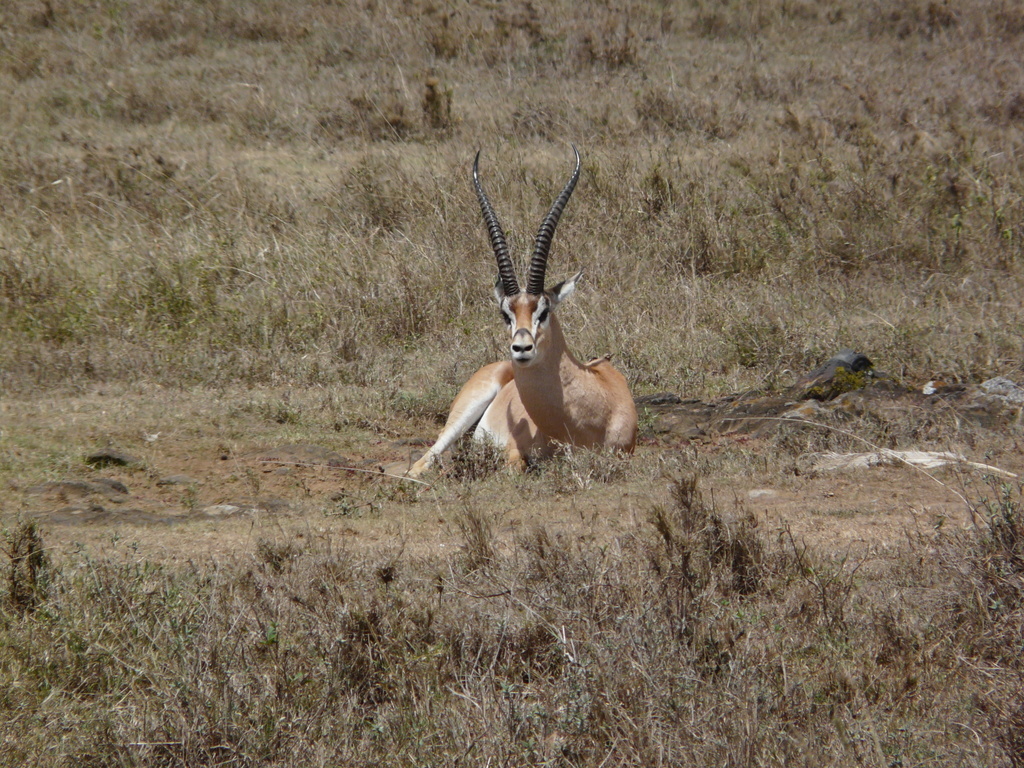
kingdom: Animalia
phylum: Chordata
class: Mammalia
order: Artiodactyla
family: Bovidae
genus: Nanger
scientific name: Nanger granti
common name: Grant's gazelle
